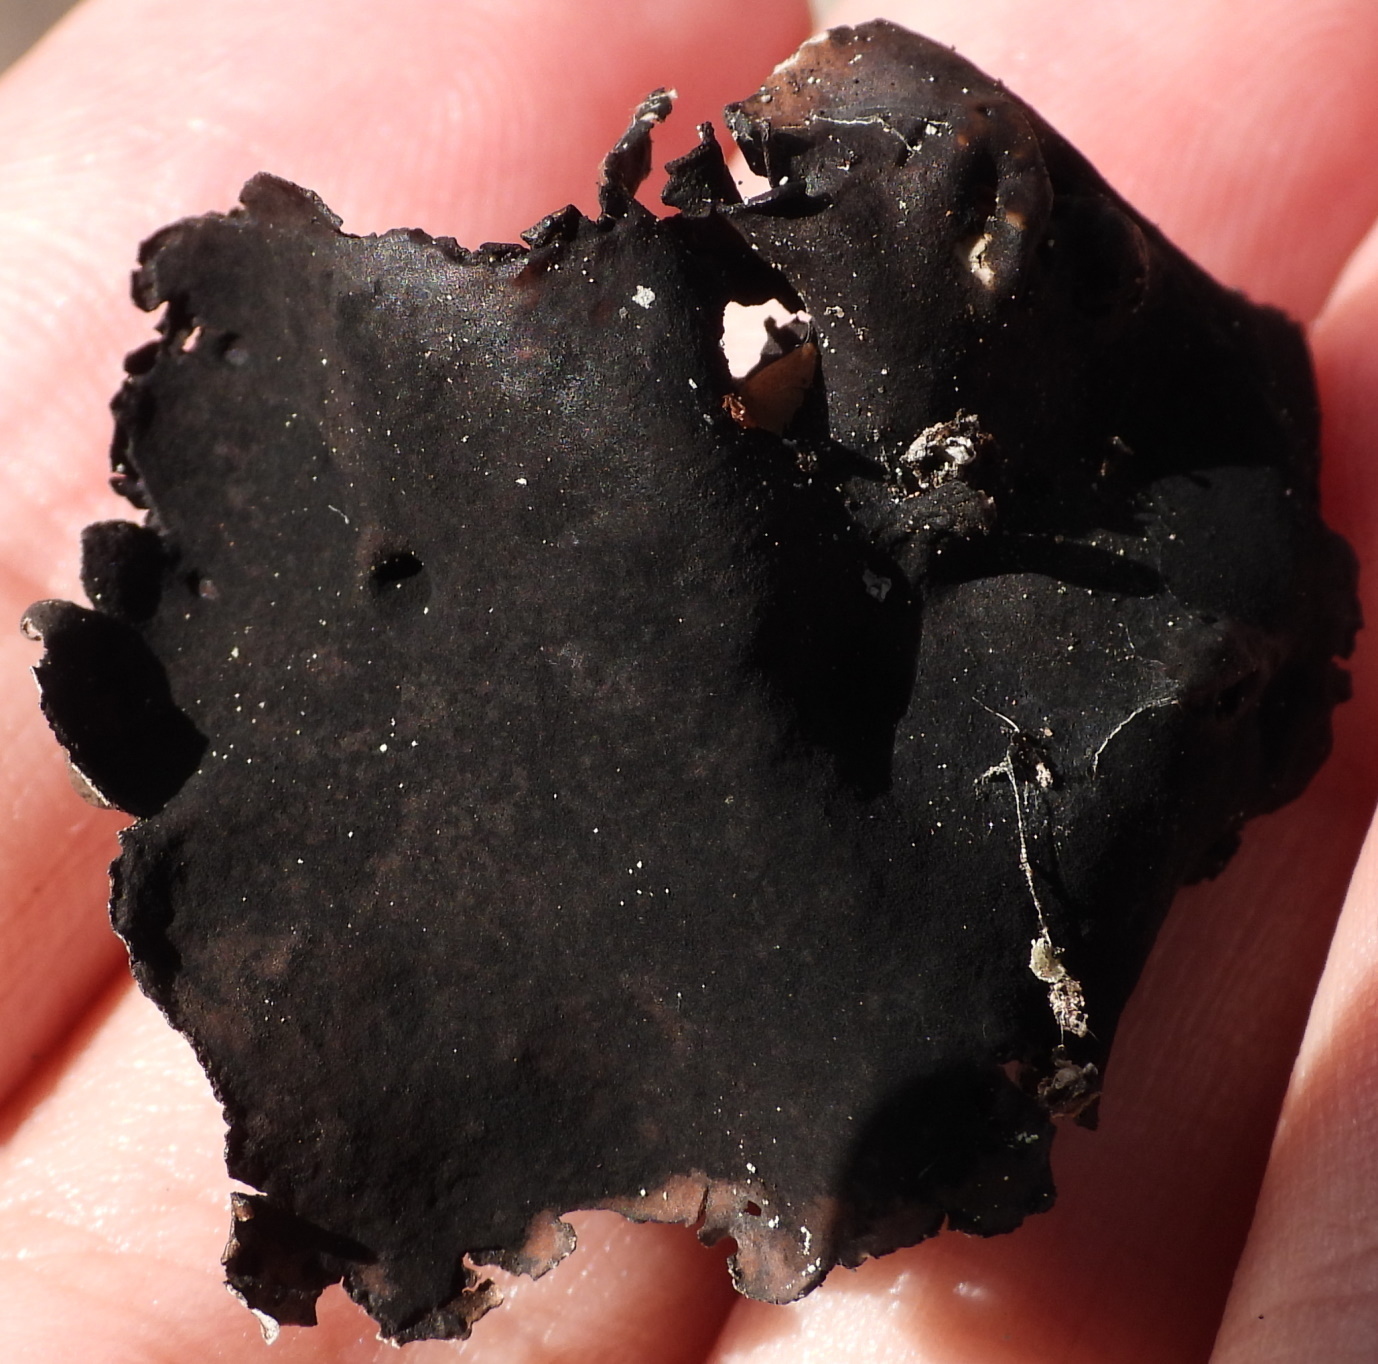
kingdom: Fungi
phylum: Ascomycota
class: Lecanoromycetes
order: Umbilicariales
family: Umbilicariaceae
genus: Umbilicaria
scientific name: Umbilicaria nylanderiana
